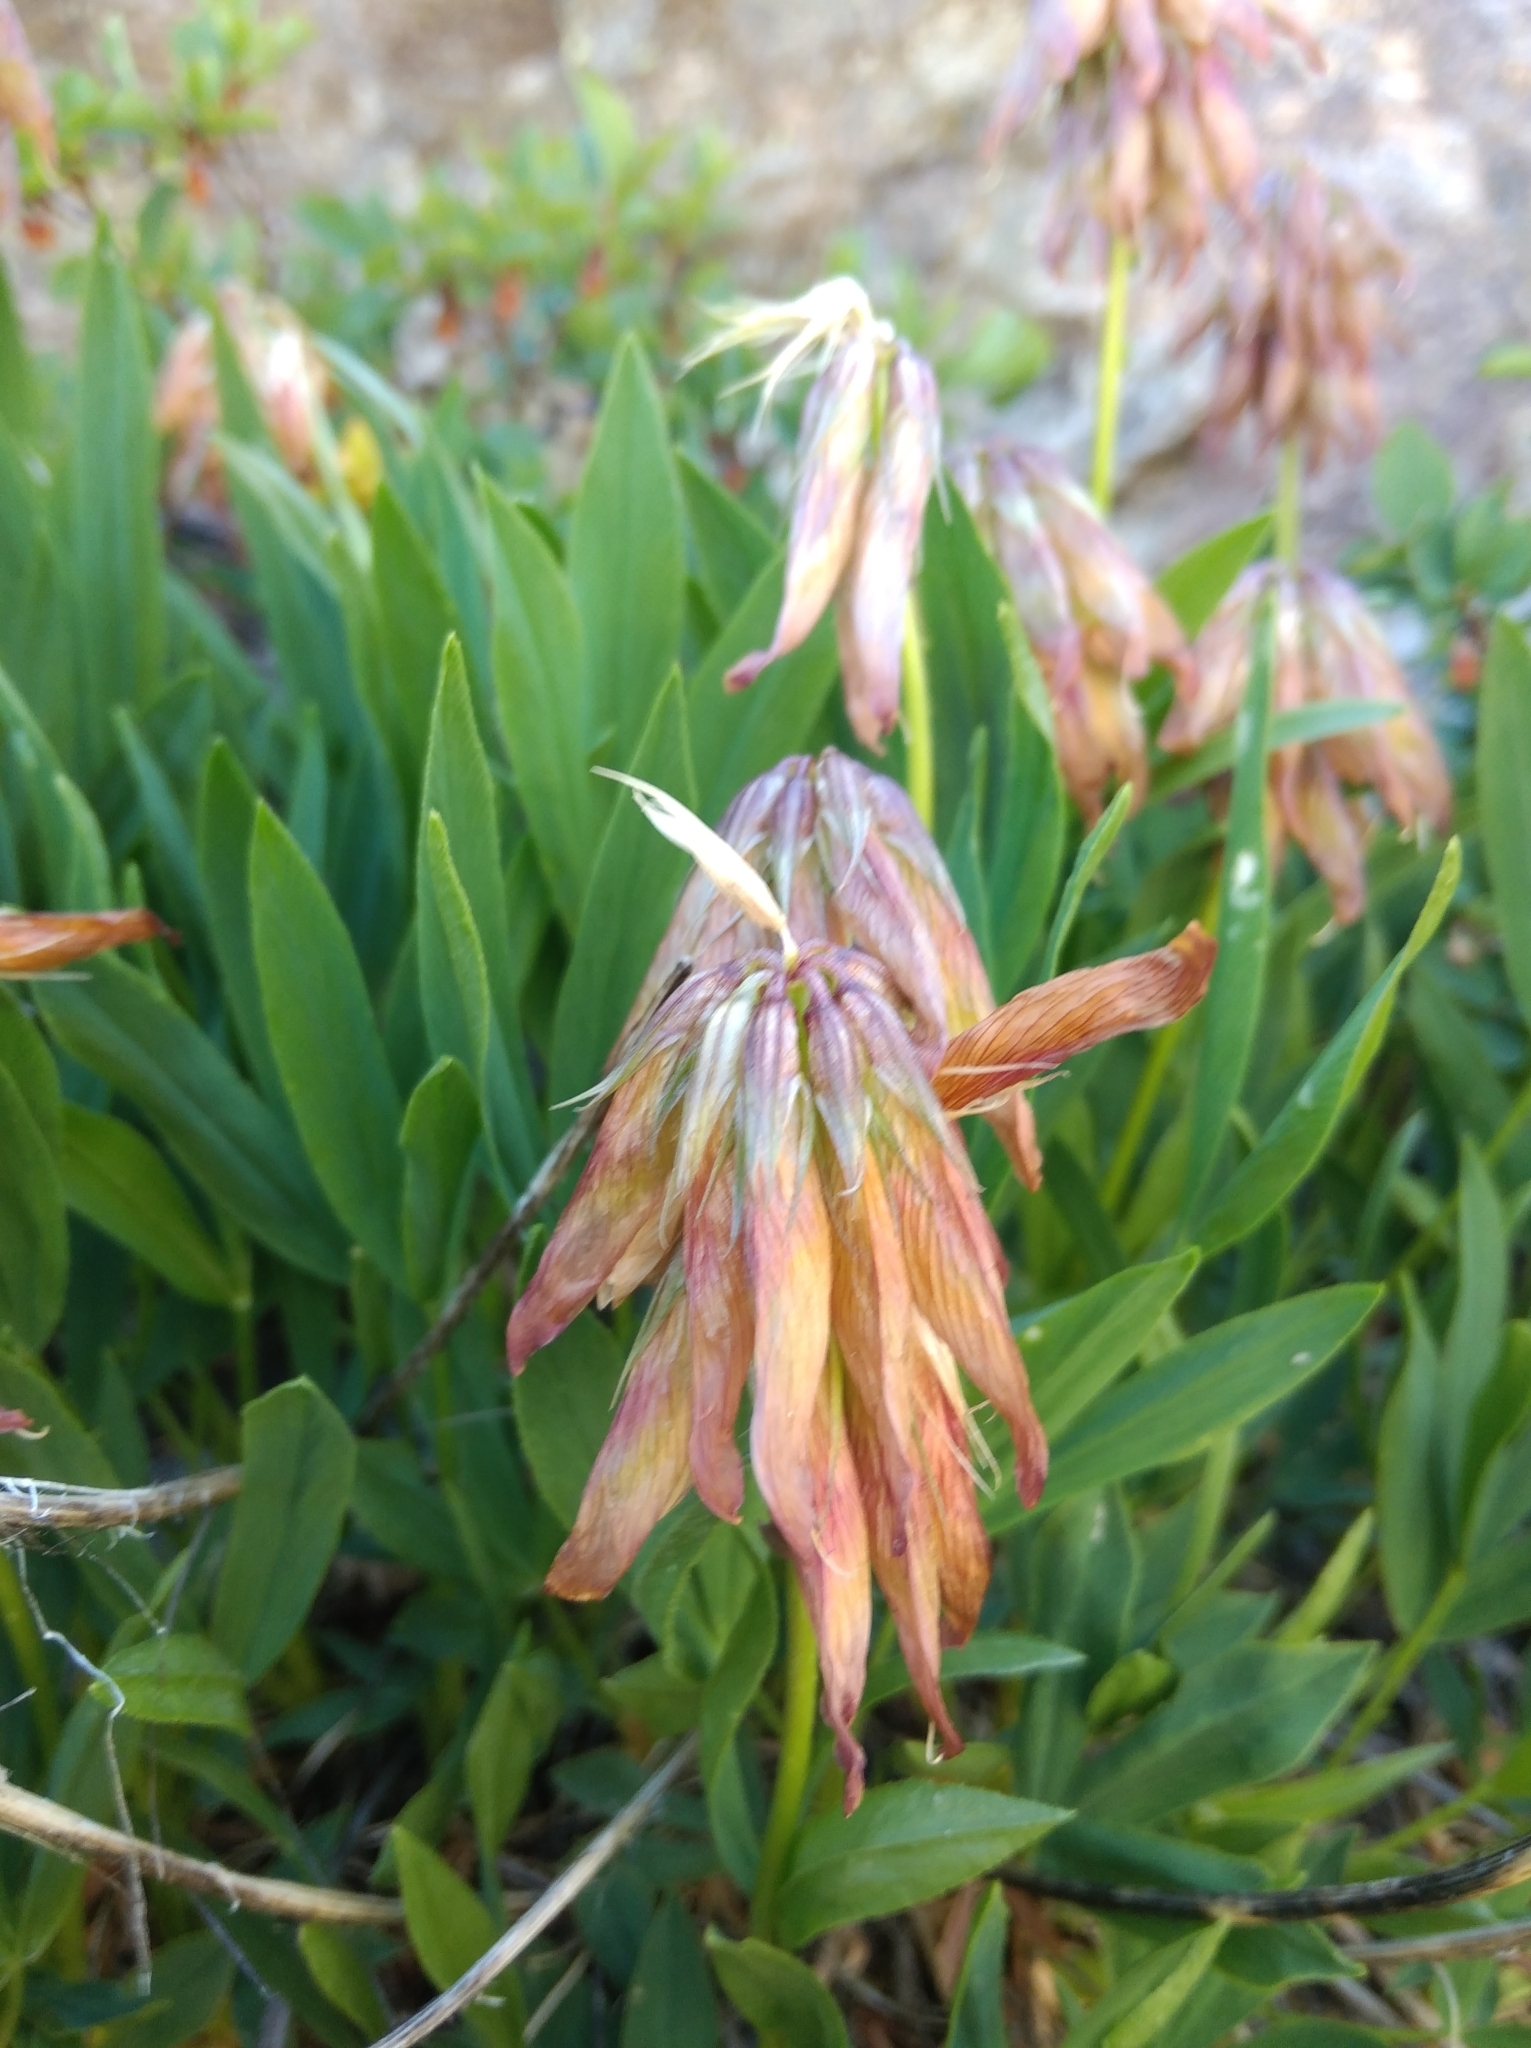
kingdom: Plantae
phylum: Tracheophyta
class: Magnoliopsida
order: Fabales
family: Fabaceae
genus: Trifolium
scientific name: Trifolium alpinum
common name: Alpine clover
